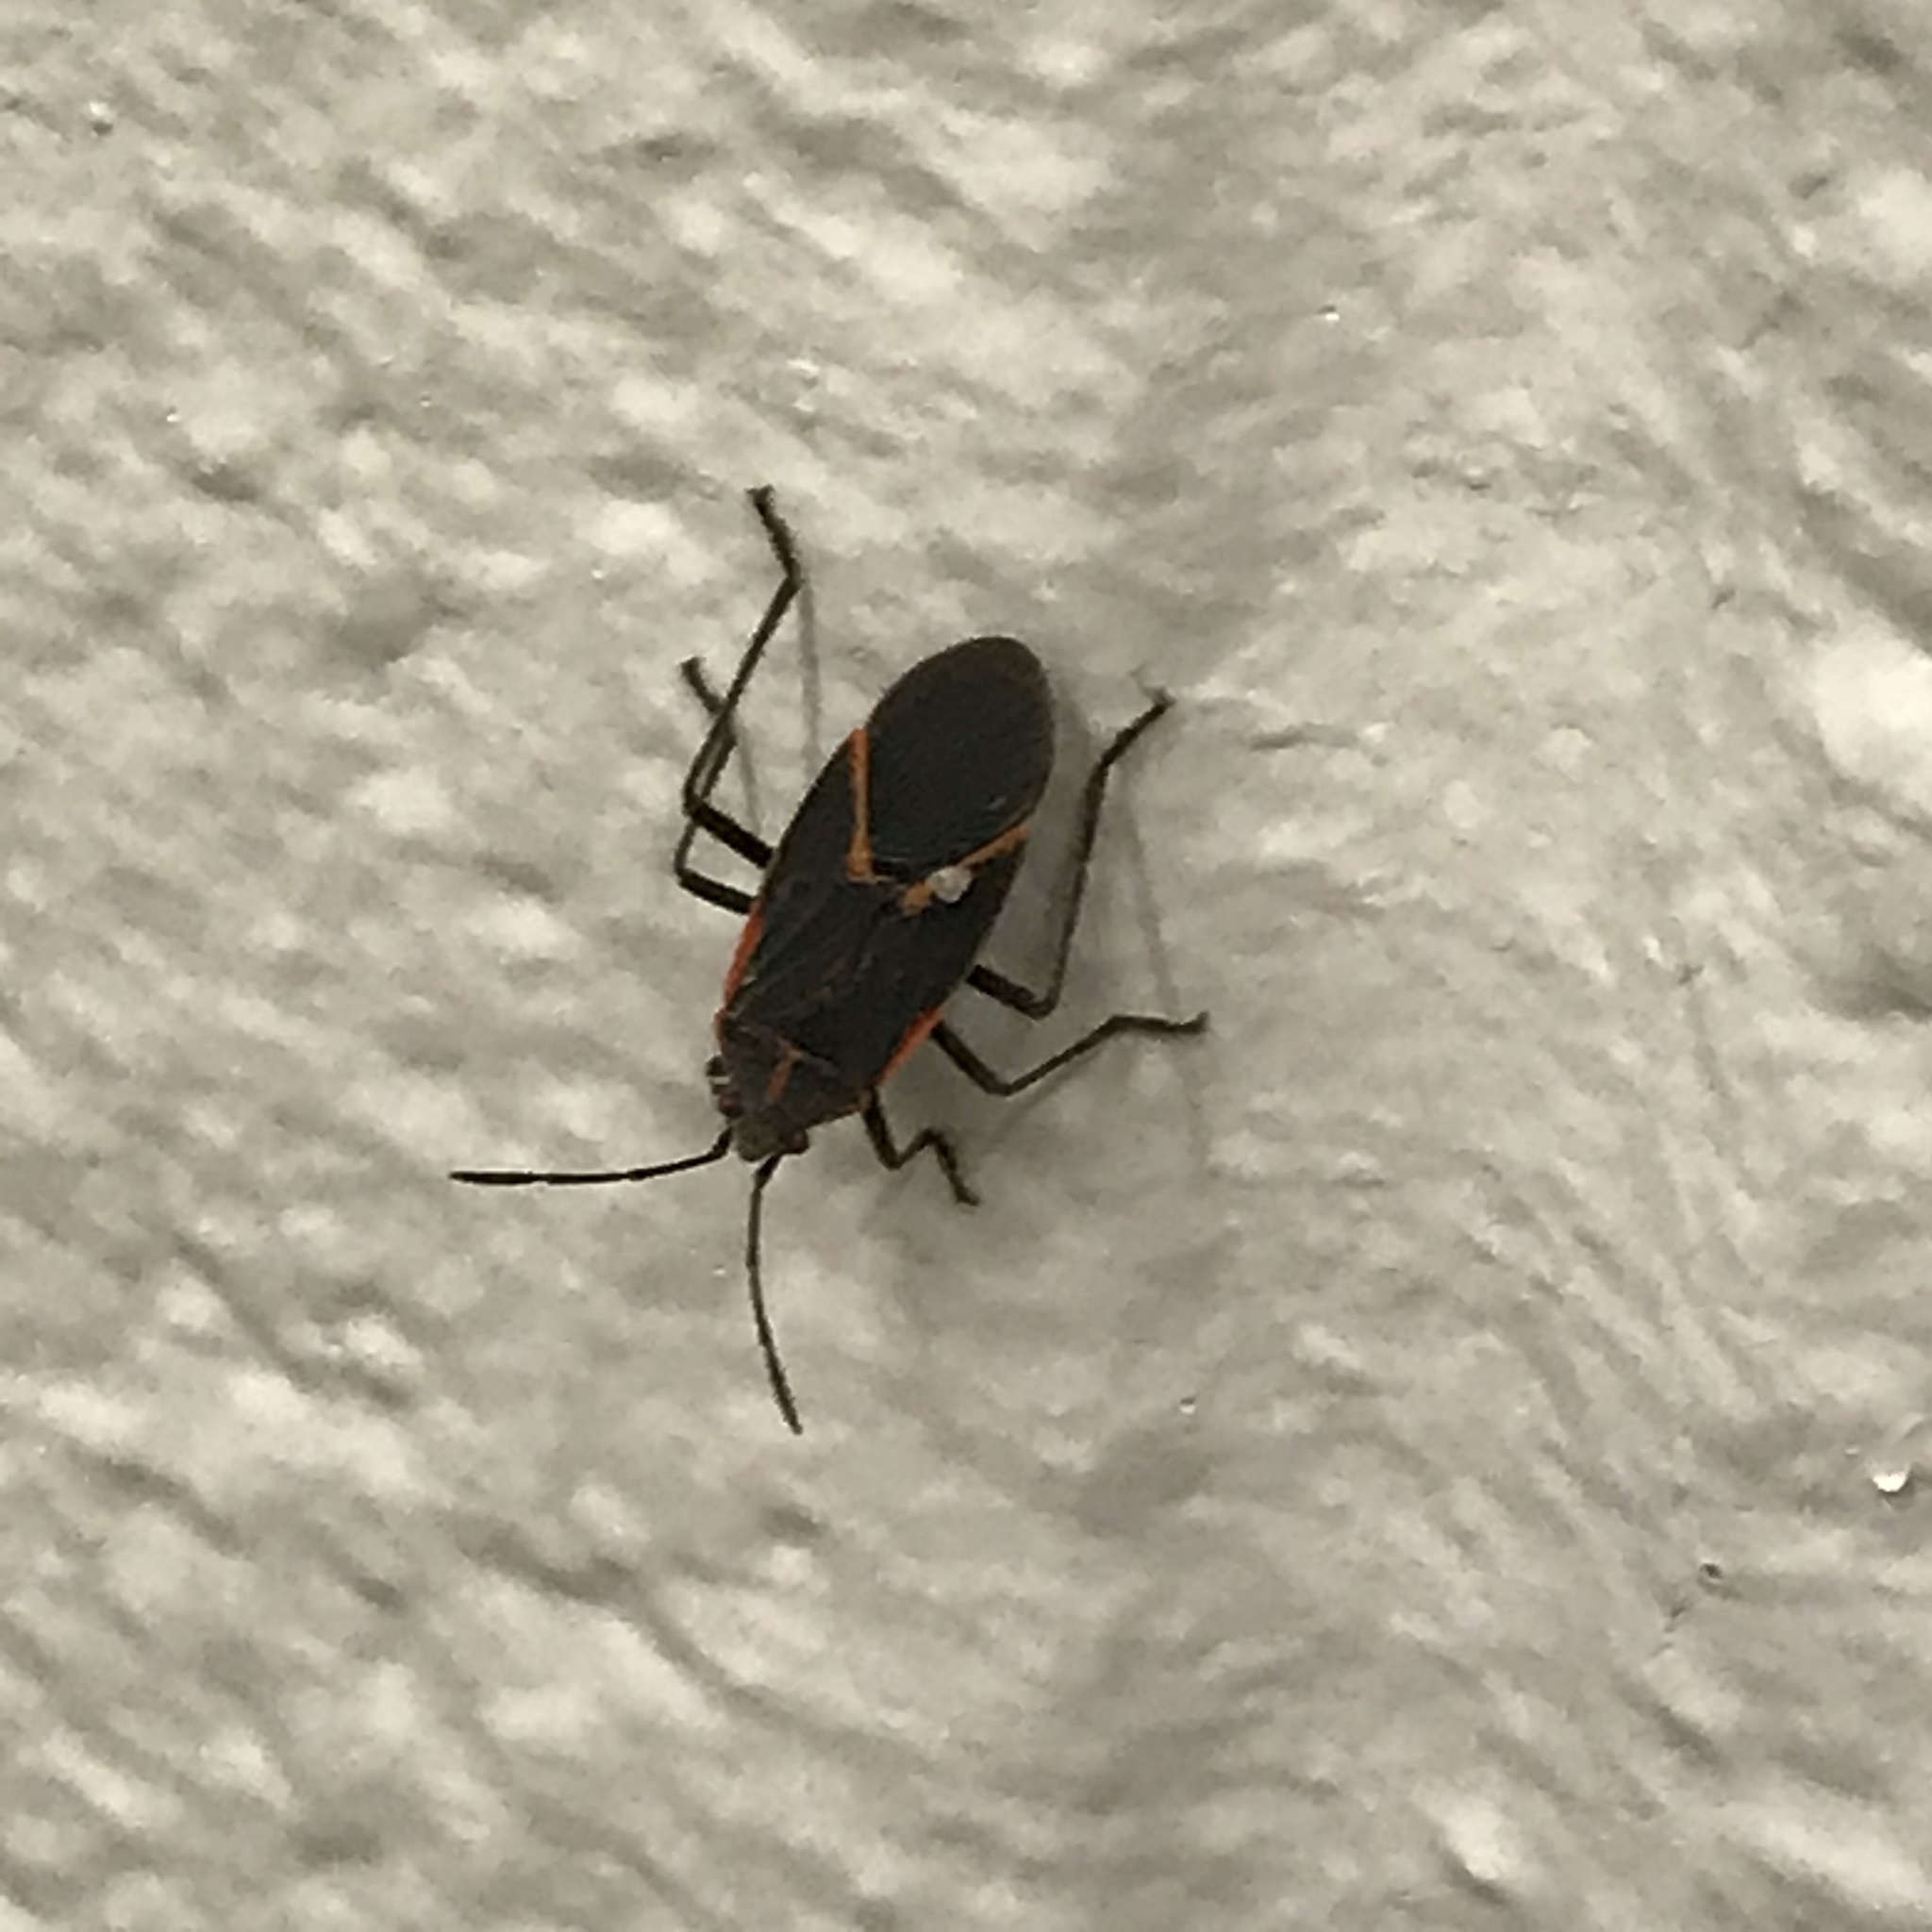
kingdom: Animalia
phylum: Arthropoda
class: Insecta
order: Hemiptera
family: Rhopalidae
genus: Boisea
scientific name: Boisea trivittata
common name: Boxelder bug
